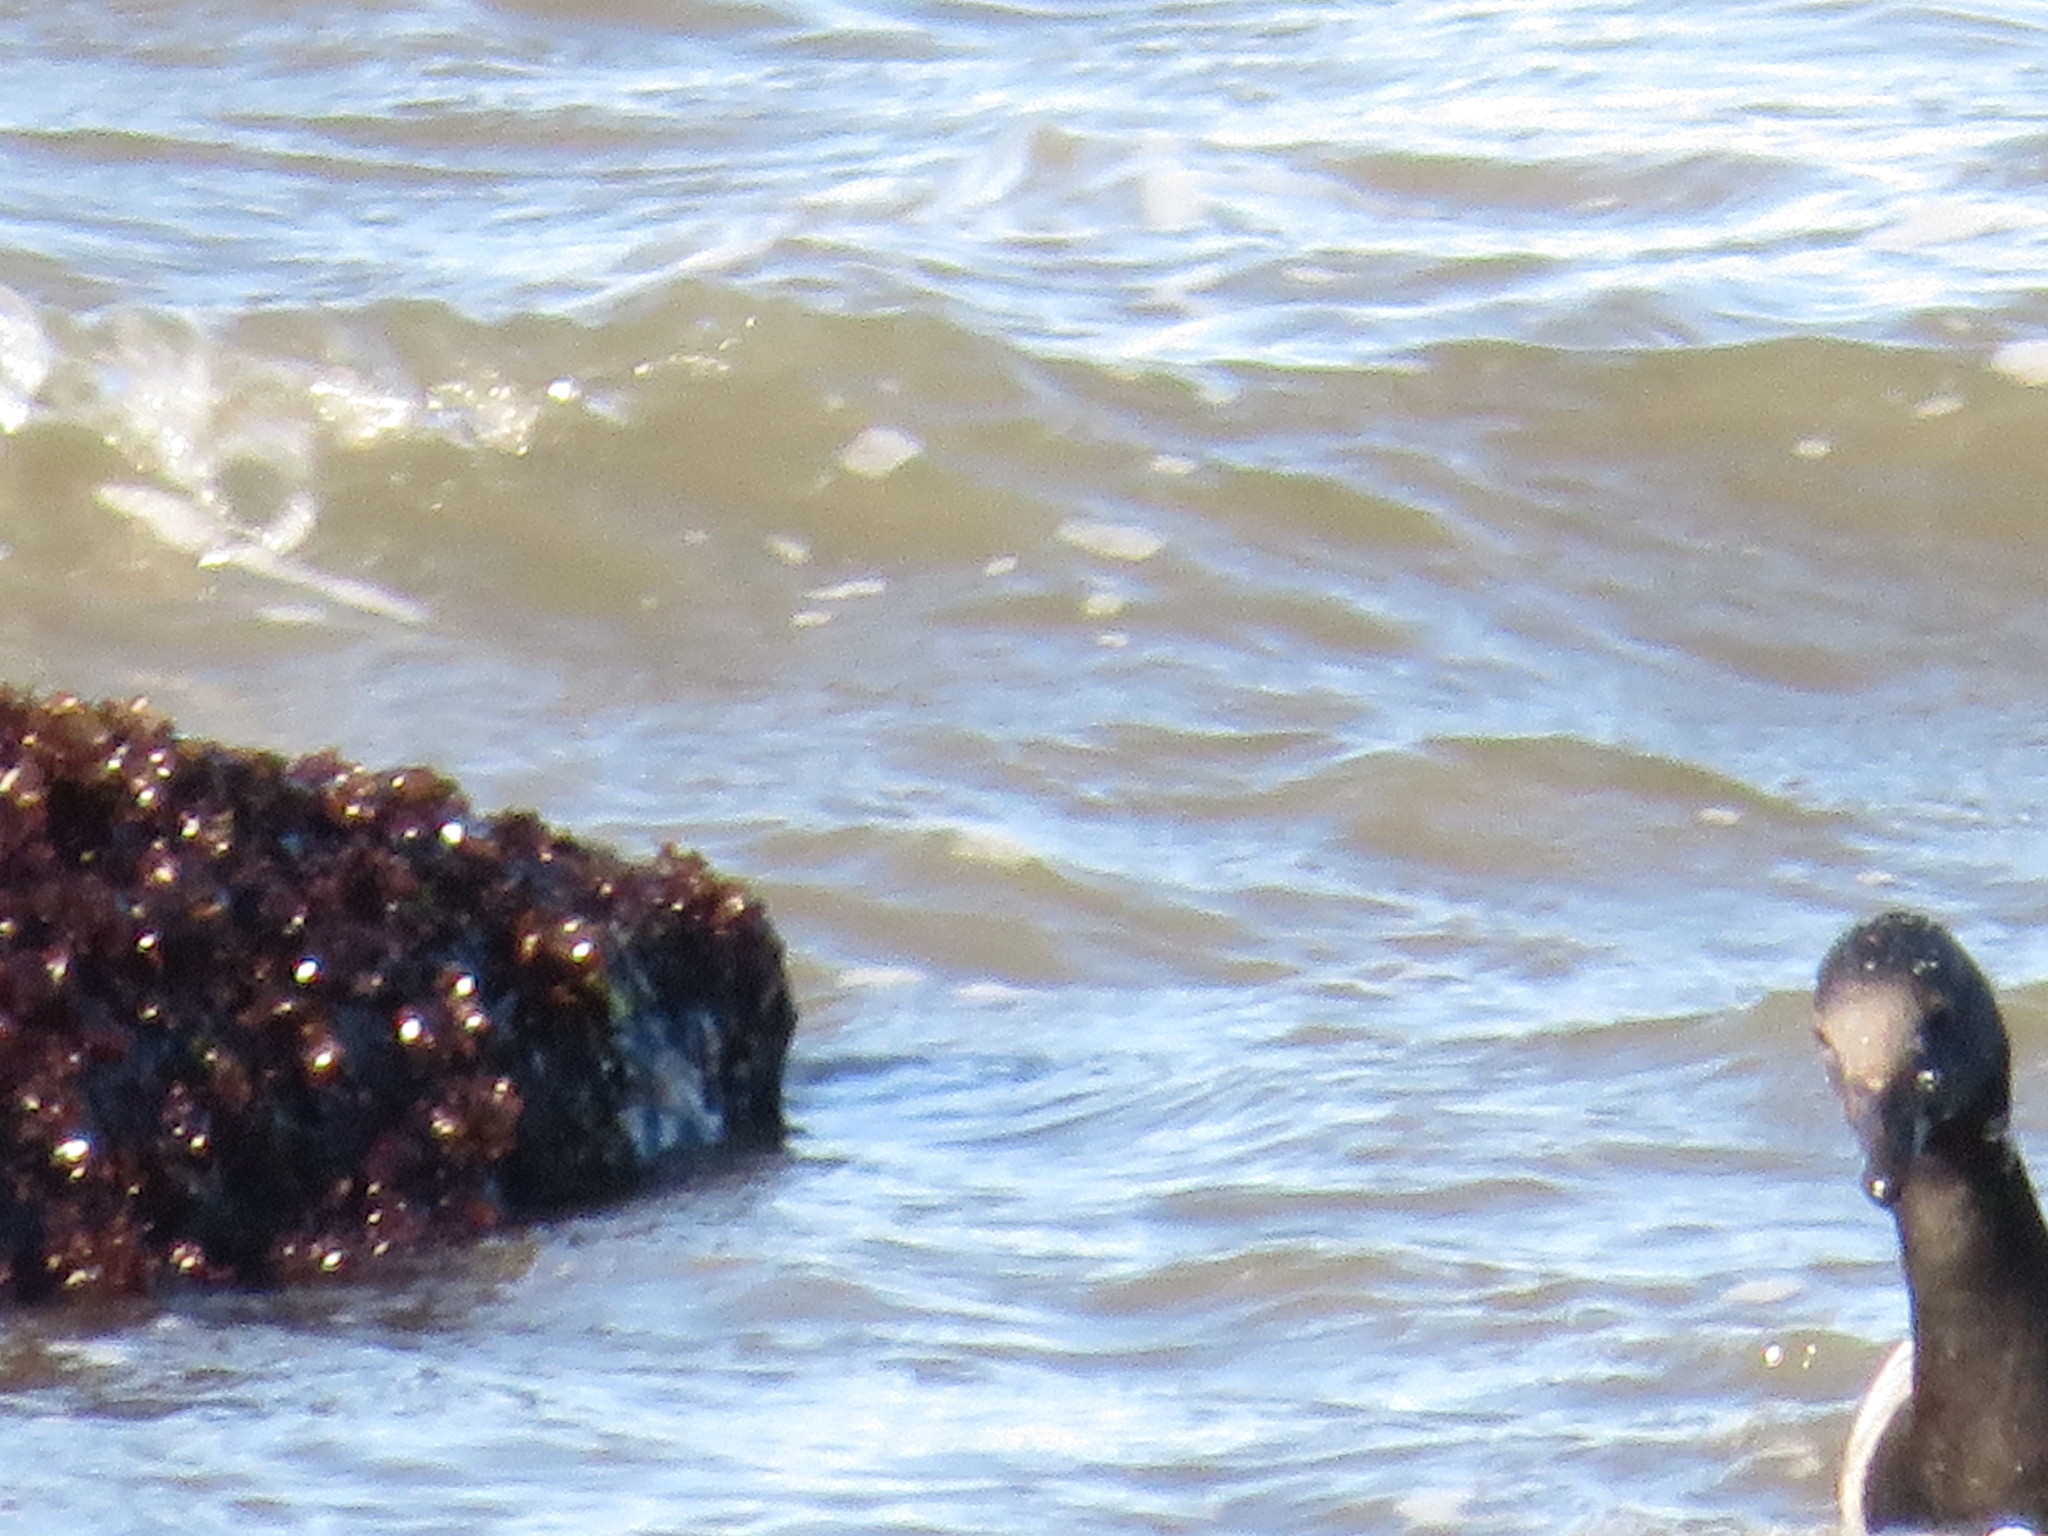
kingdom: Animalia
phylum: Chordata
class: Aves
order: Anseriformes
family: Anatidae
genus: Branta
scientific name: Branta bernicla
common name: Brant goose
